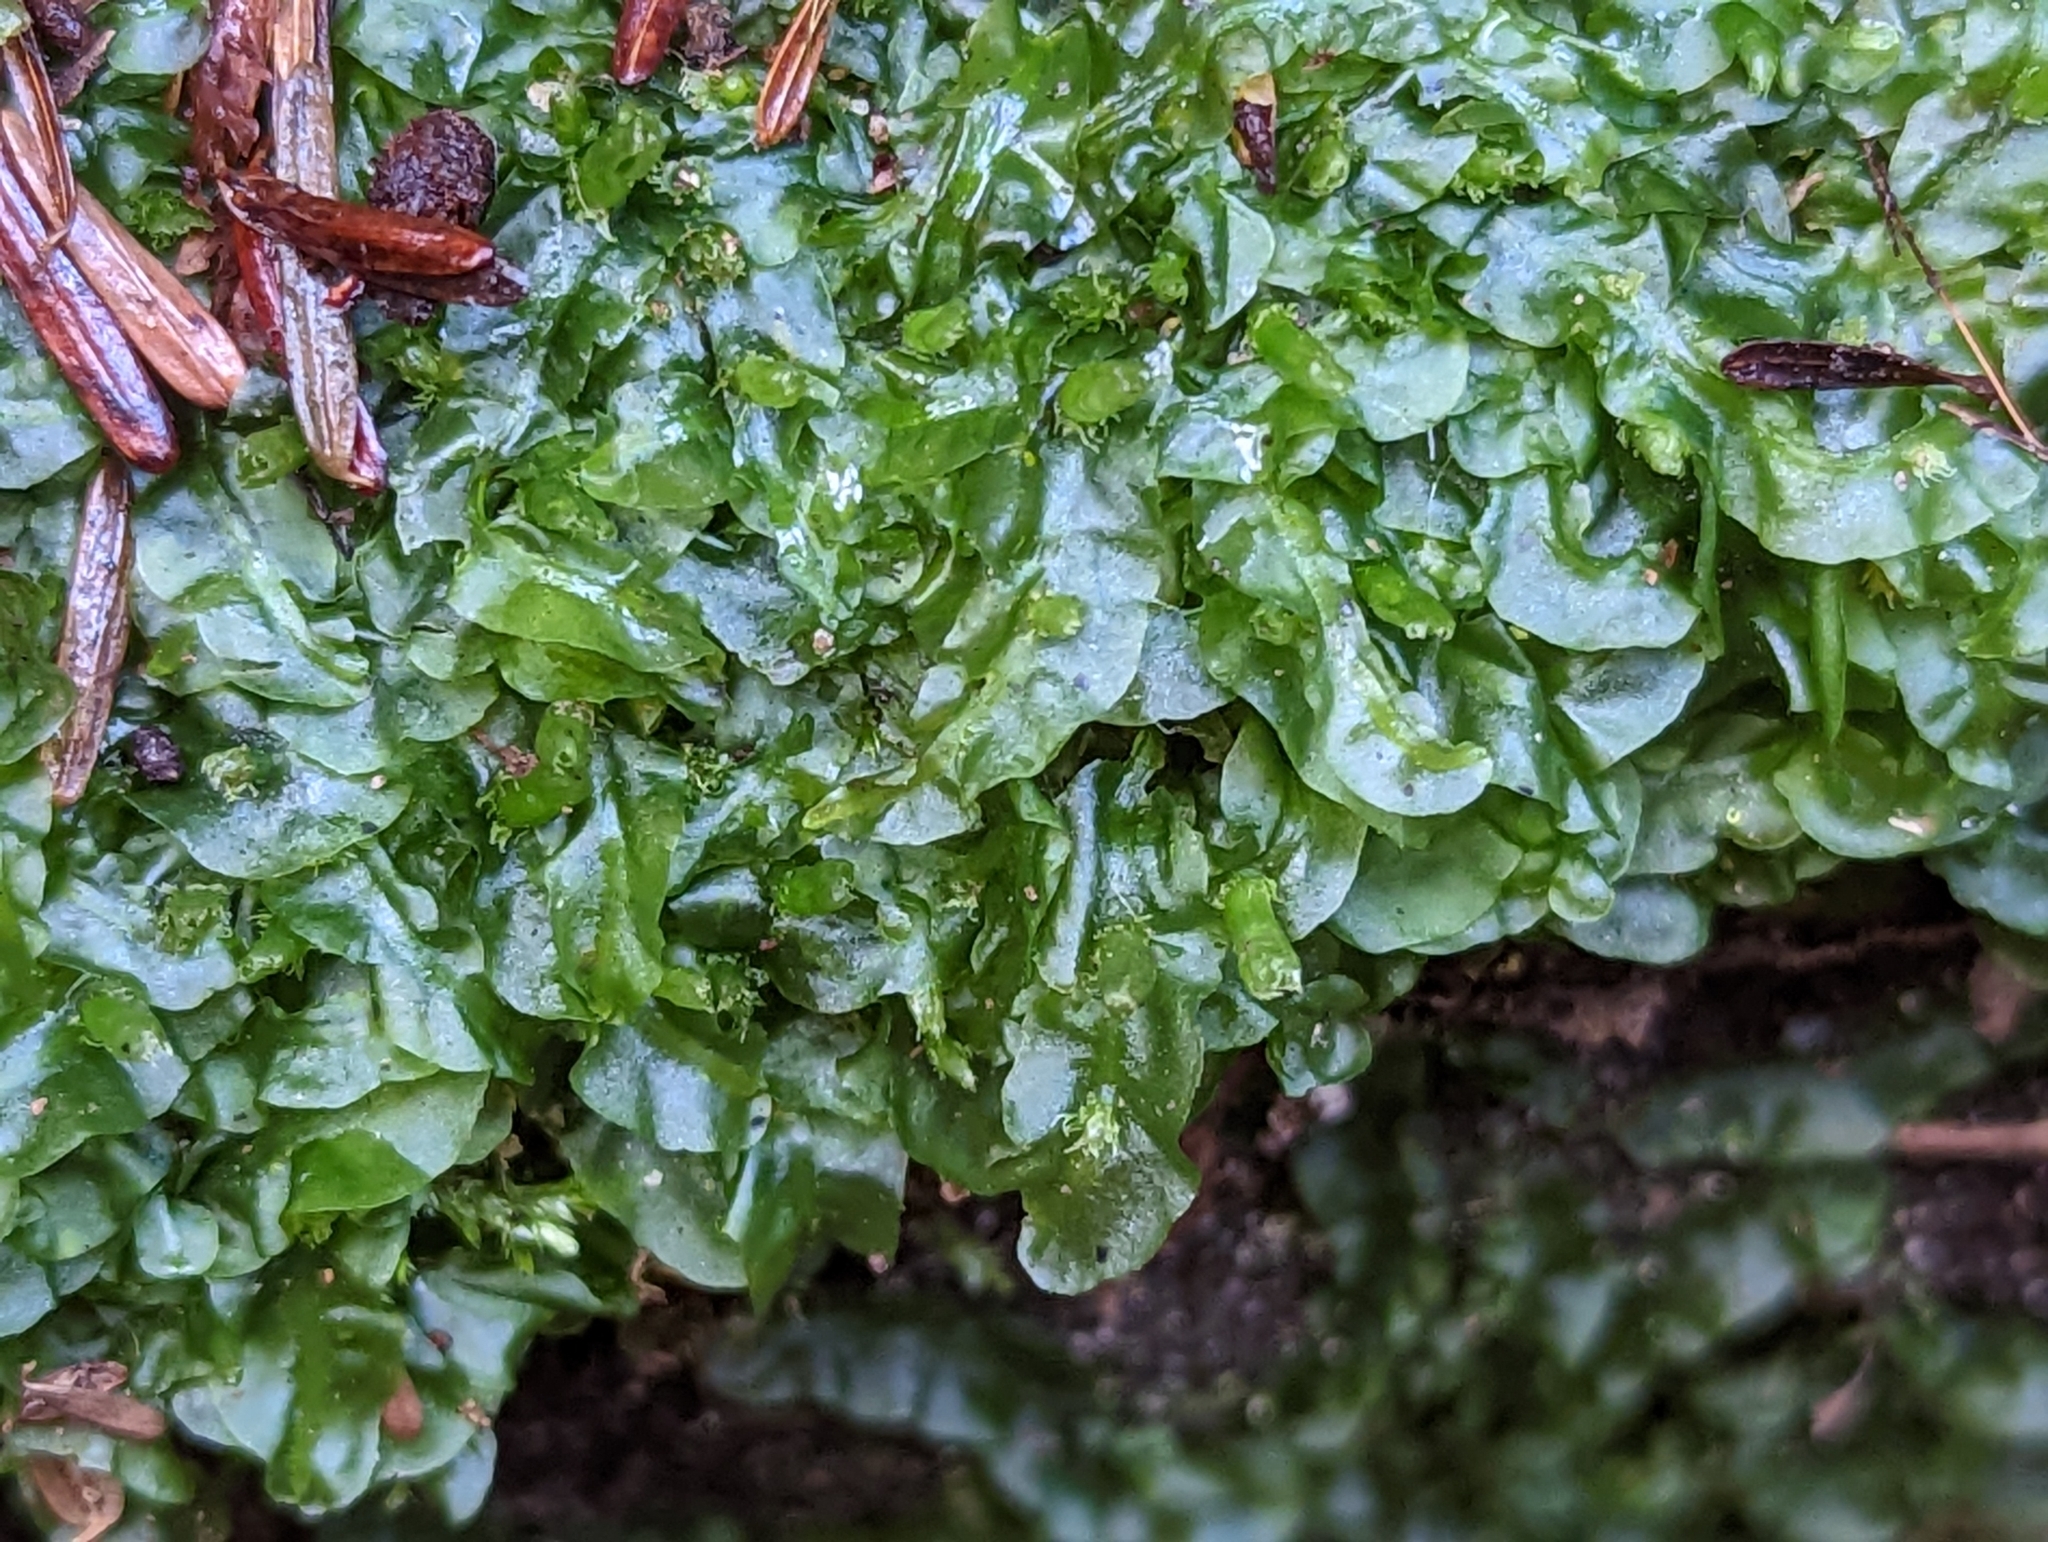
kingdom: Plantae
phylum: Marchantiophyta
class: Jungermanniopsida
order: Pallaviciniales
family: Pallaviciniaceae
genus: Pallavicinia
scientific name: Pallavicinia lyellii
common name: Veilwort
